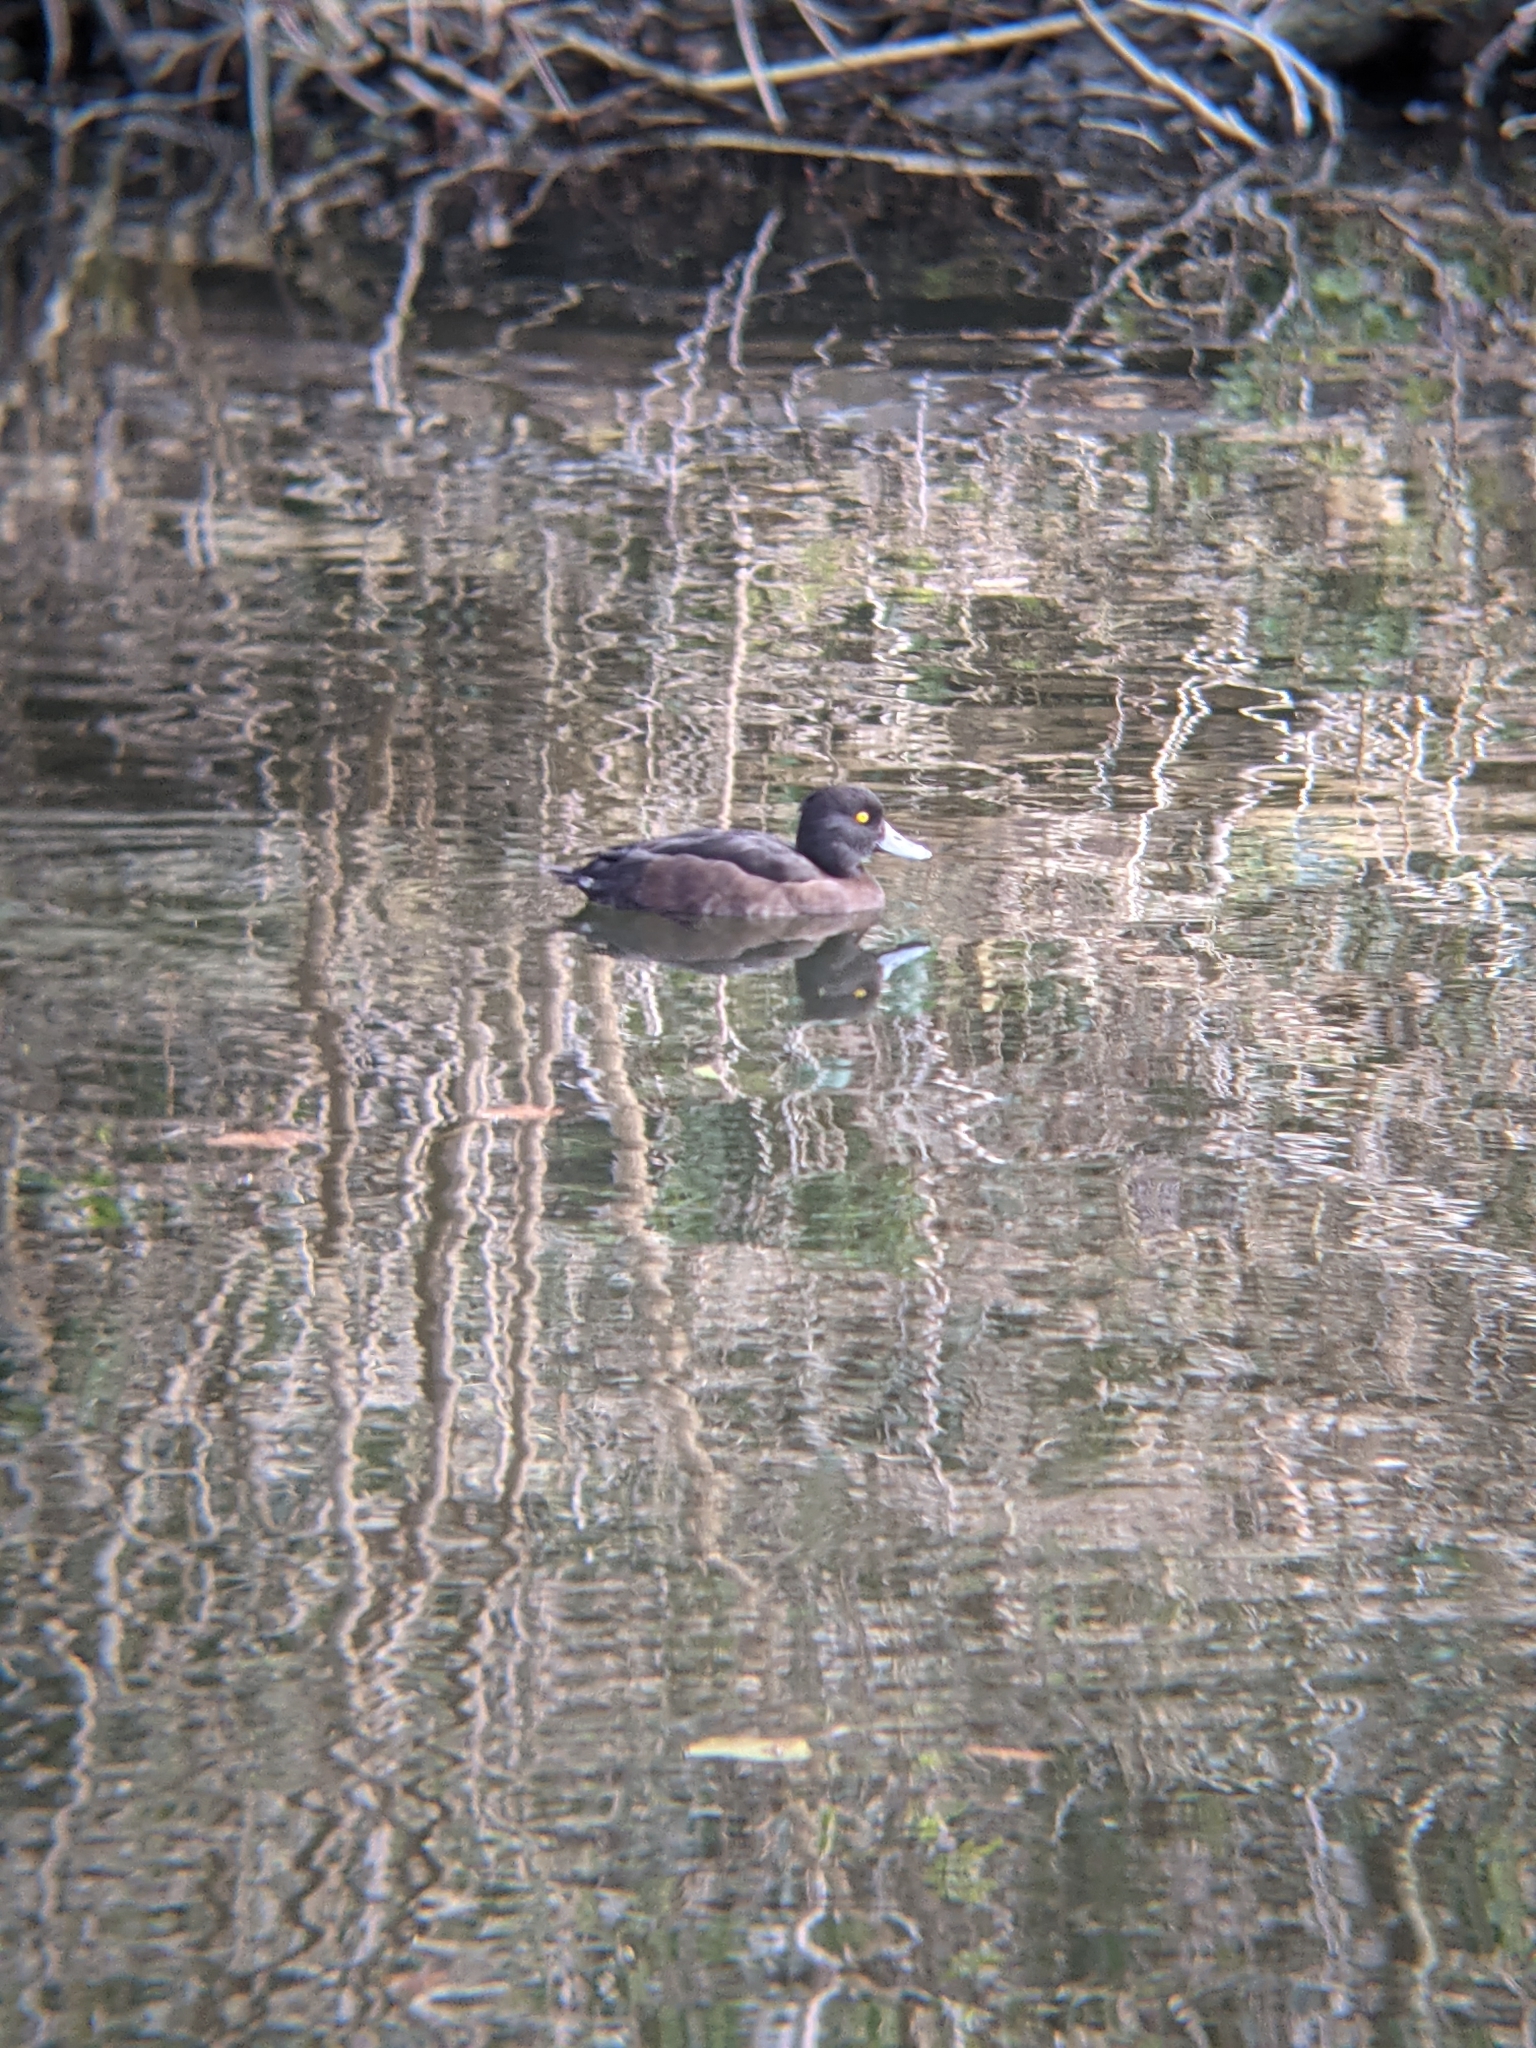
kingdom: Animalia
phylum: Chordata
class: Aves
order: Anseriformes
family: Anatidae
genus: Aythya
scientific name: Aythya fuligula
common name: Tufted duck
